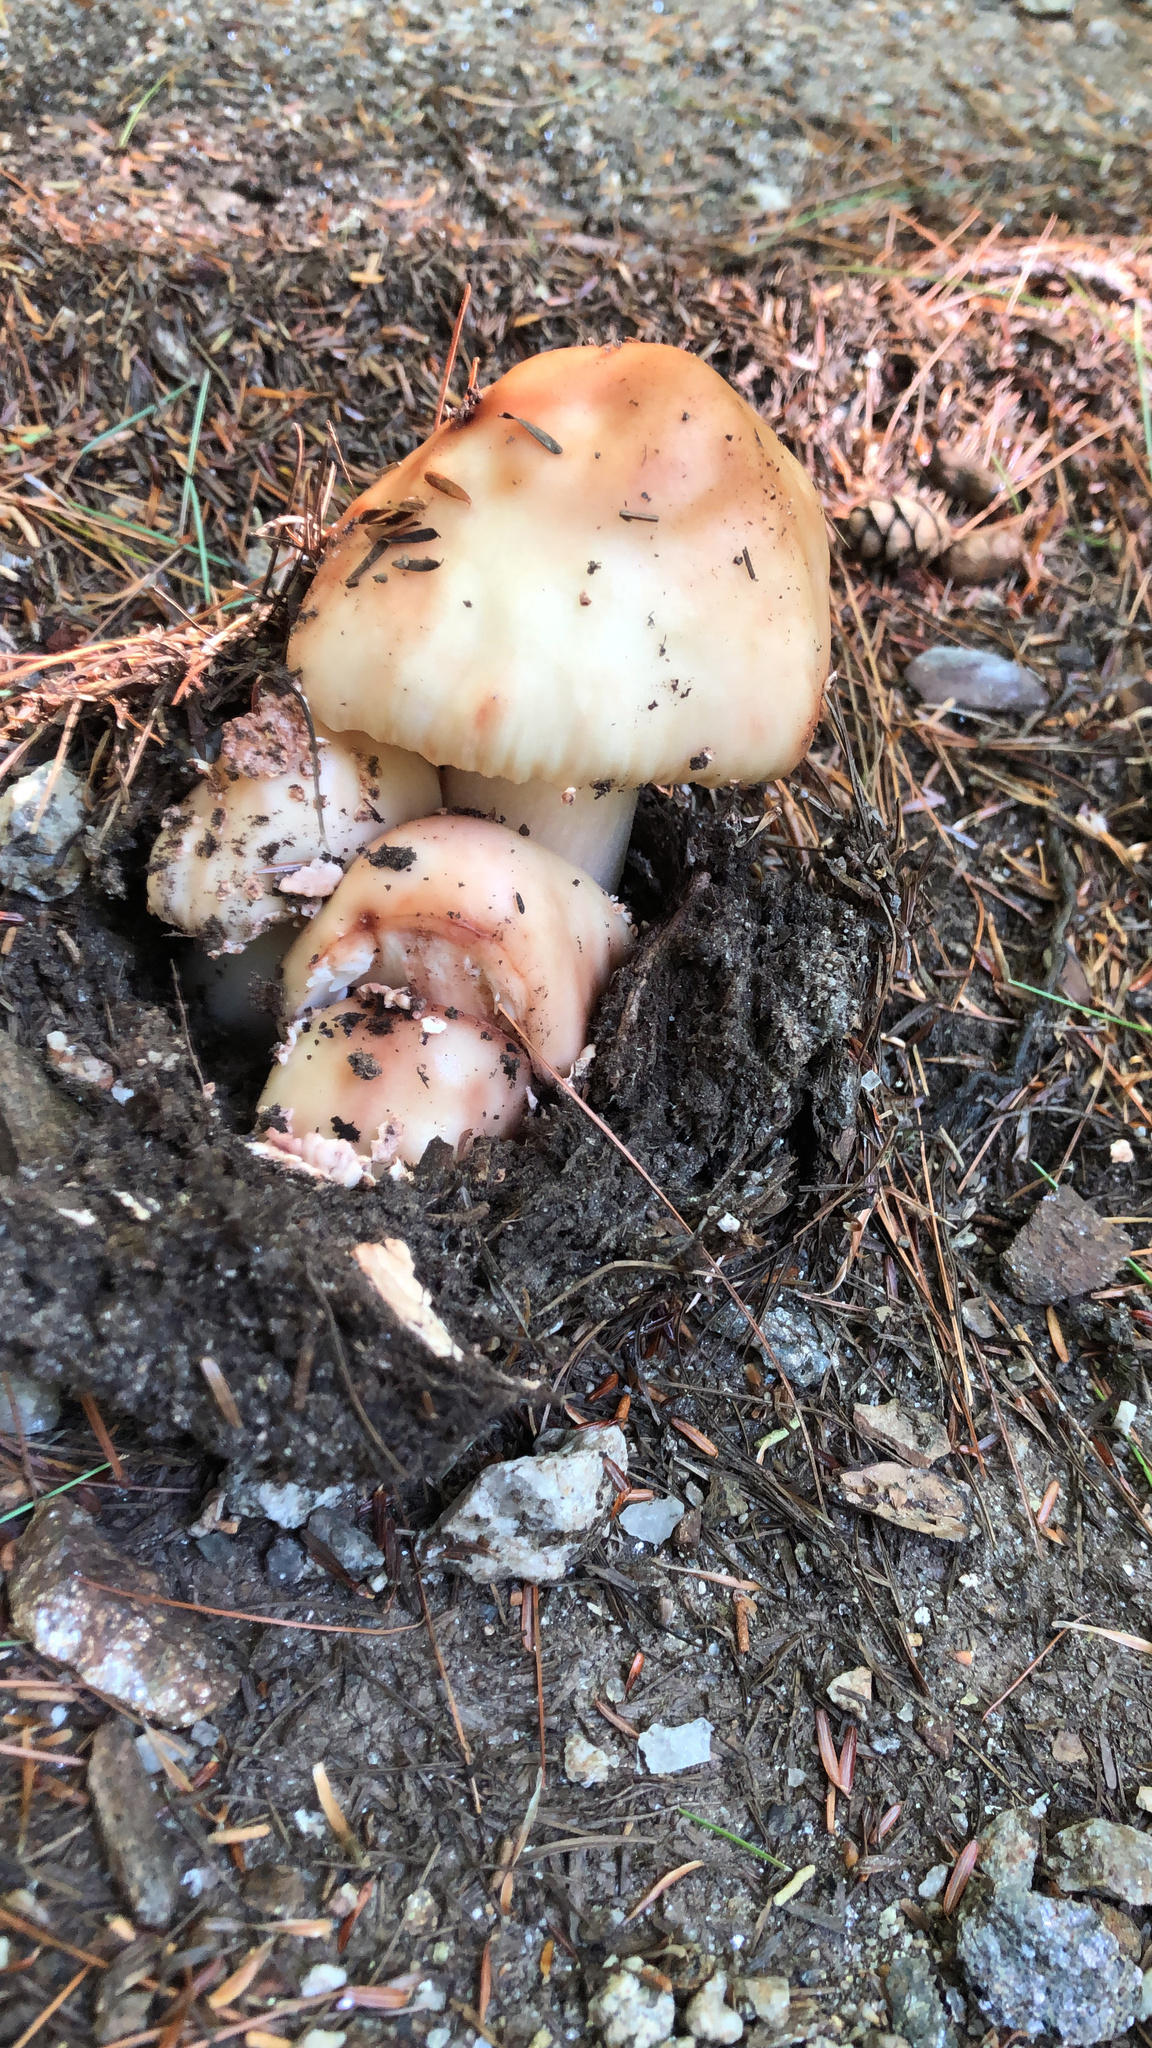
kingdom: Fungi
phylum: Basidiomycota
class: Agaricomycetes
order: Agaricales
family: Amanitaceae
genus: Amanita
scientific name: Amanita rubescens
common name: Blusher
